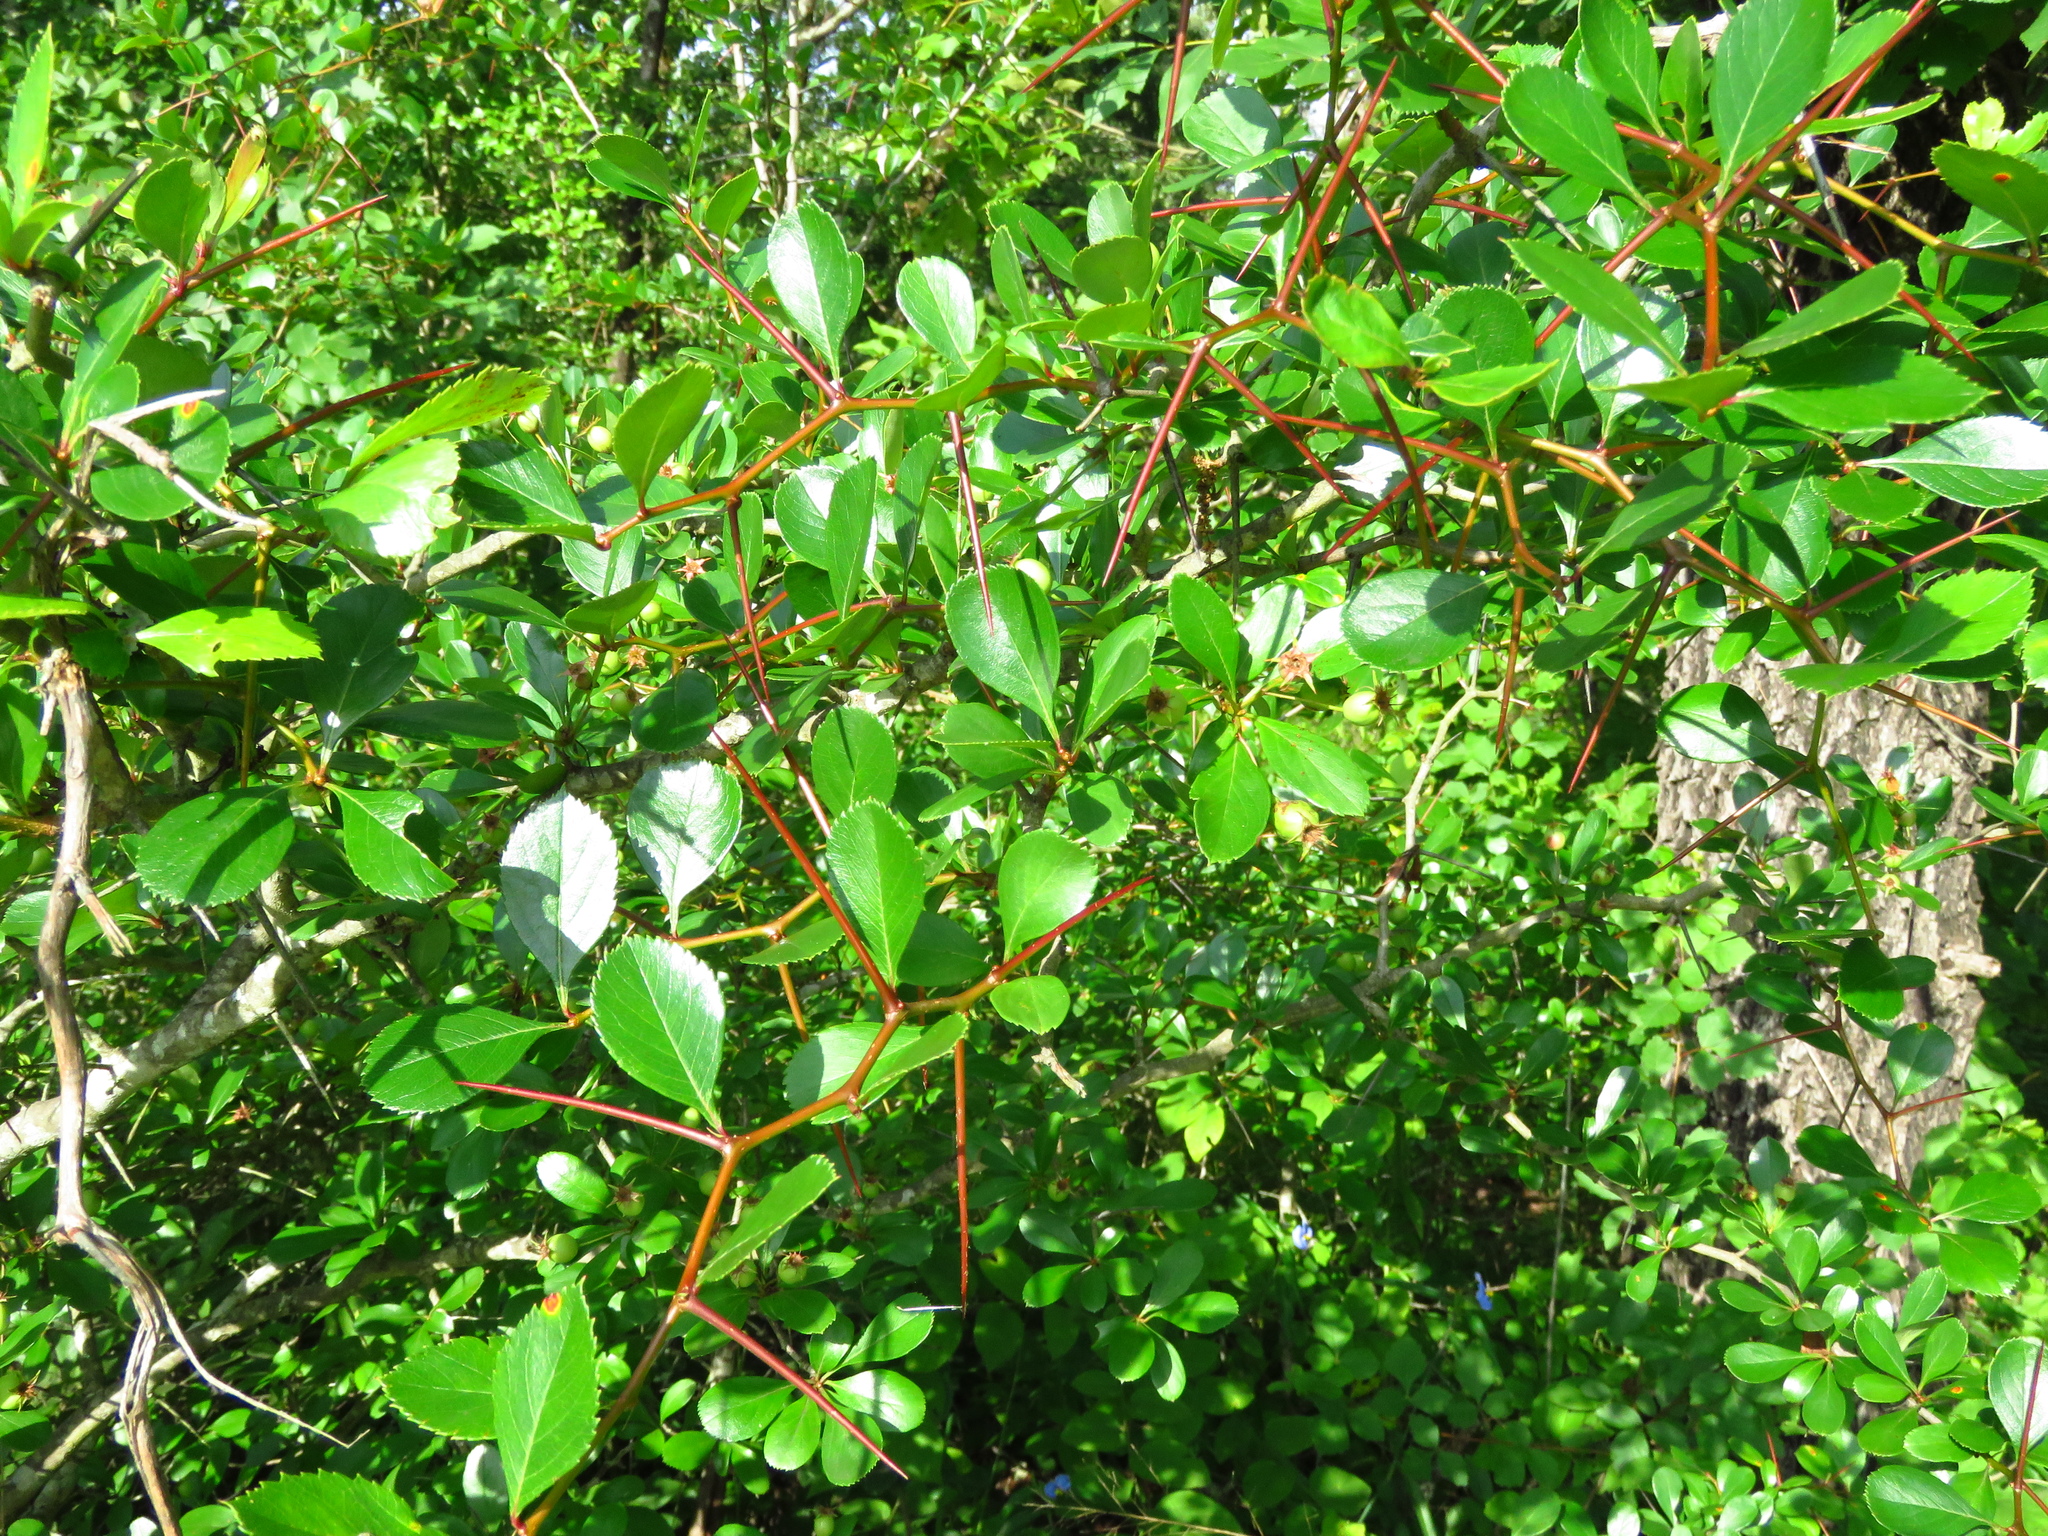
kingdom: Plantae
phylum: Tracheophyta
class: Magnoliopsida
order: Rosales
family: Rosaceae
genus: Crataegus
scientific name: Crataegus crus-galli
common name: Cockspurthorn
